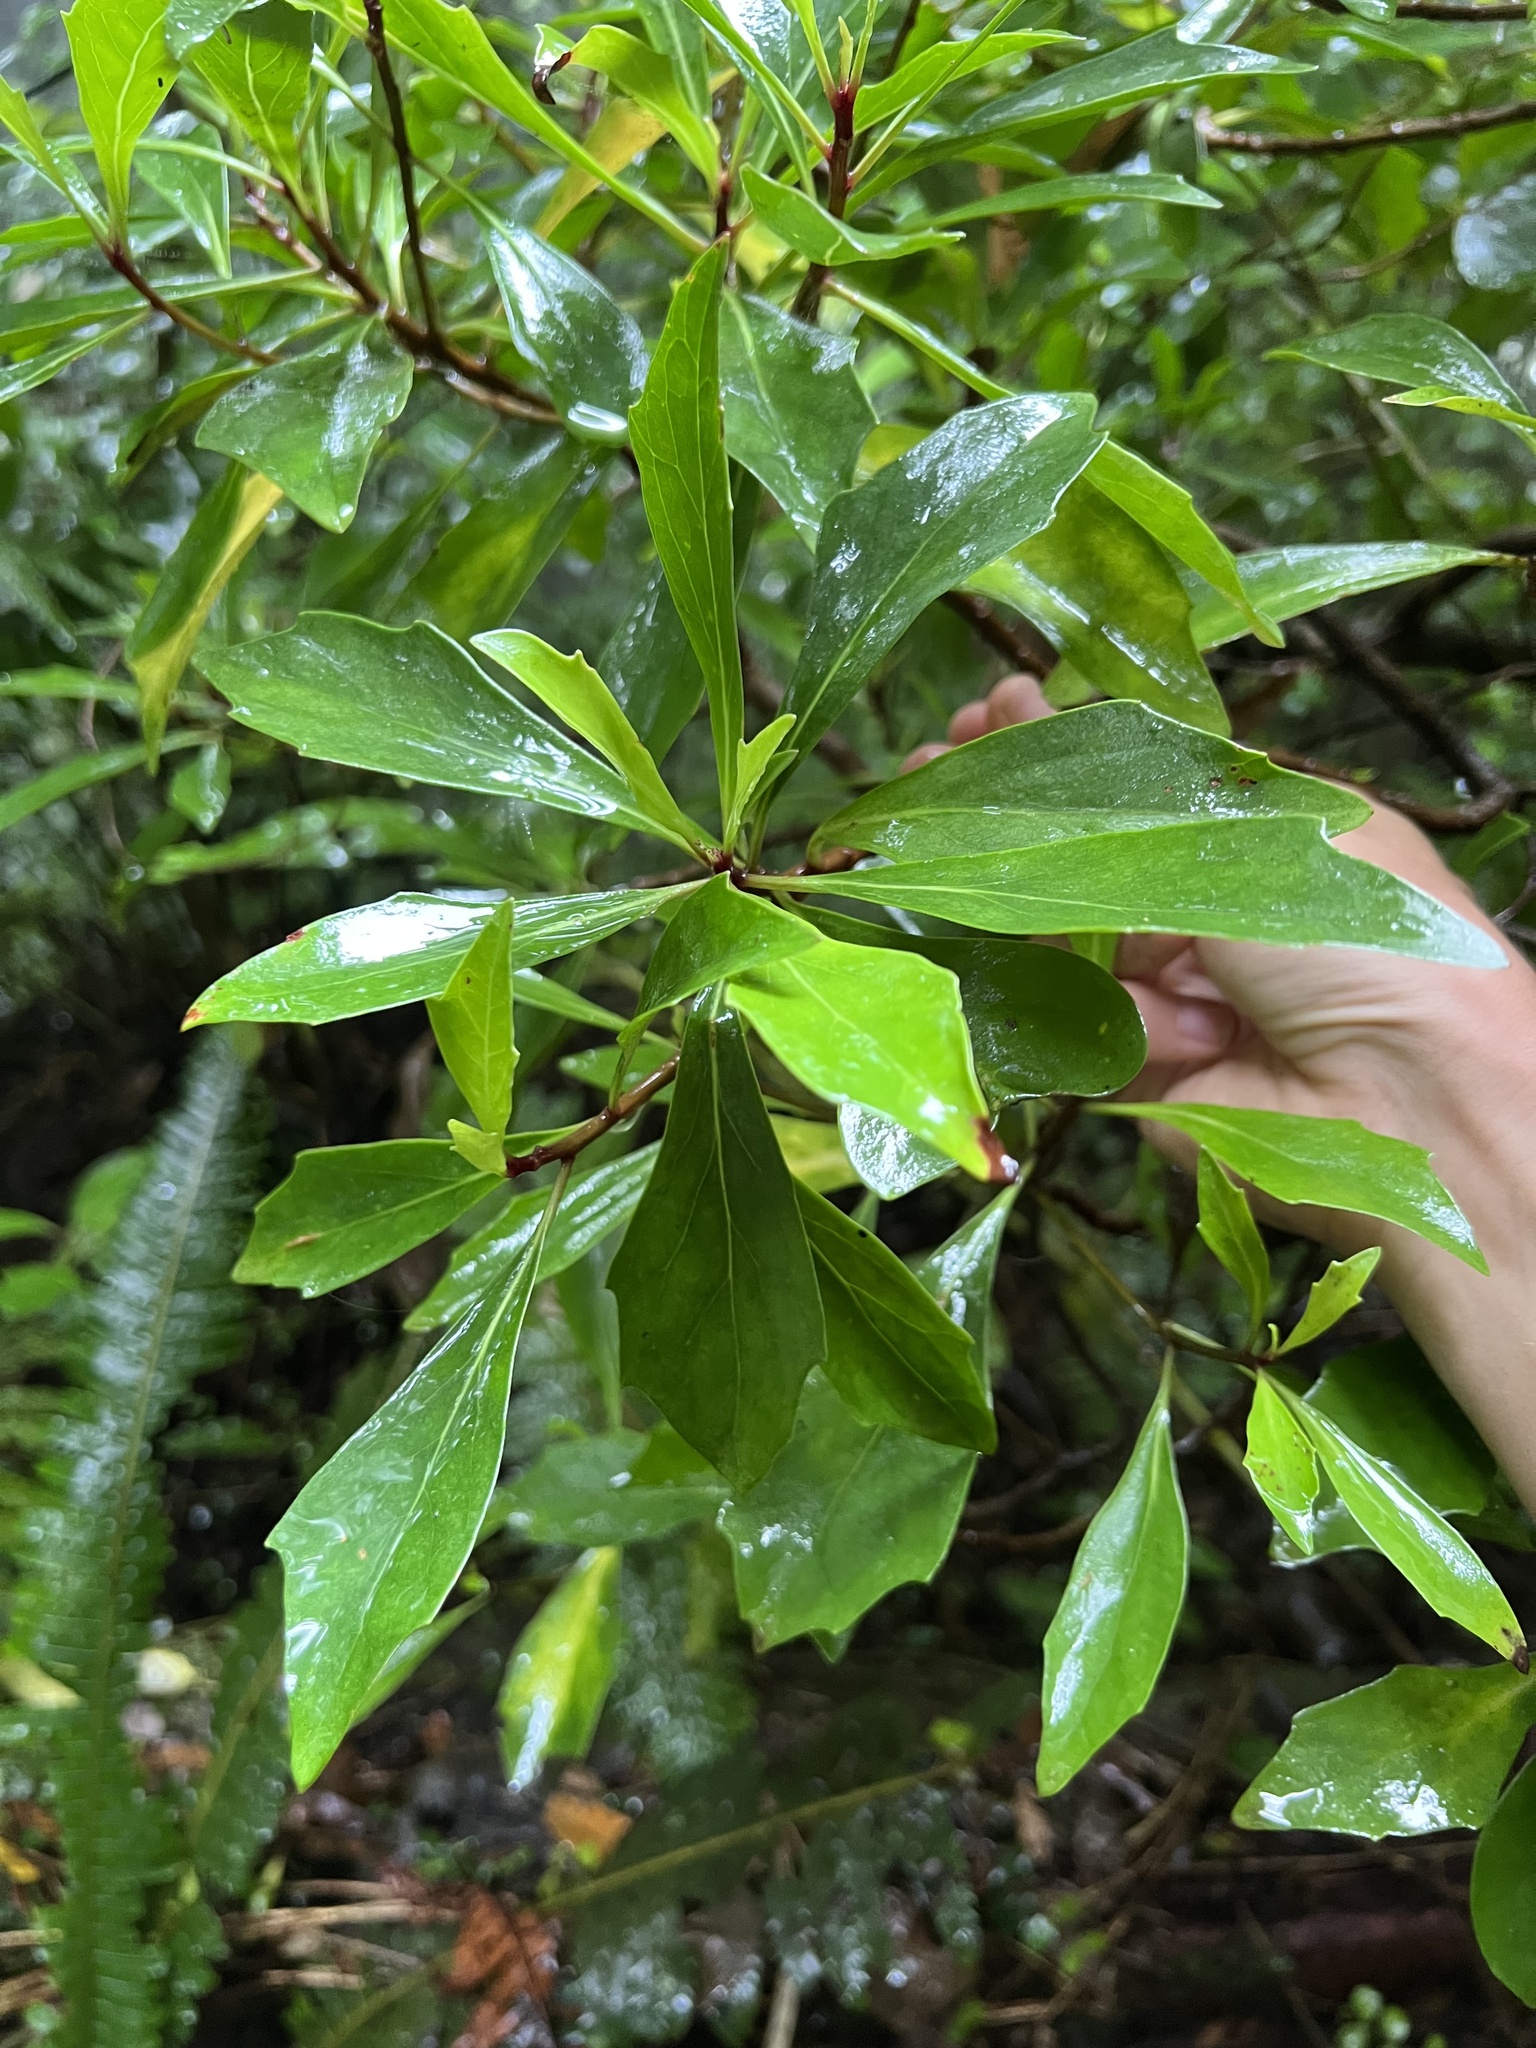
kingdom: Plantae
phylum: Tracheophyta
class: Magnoliopsida
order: Asterales
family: Asteraceae
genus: Brachyglottis
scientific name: Brachyglottis kirkii
